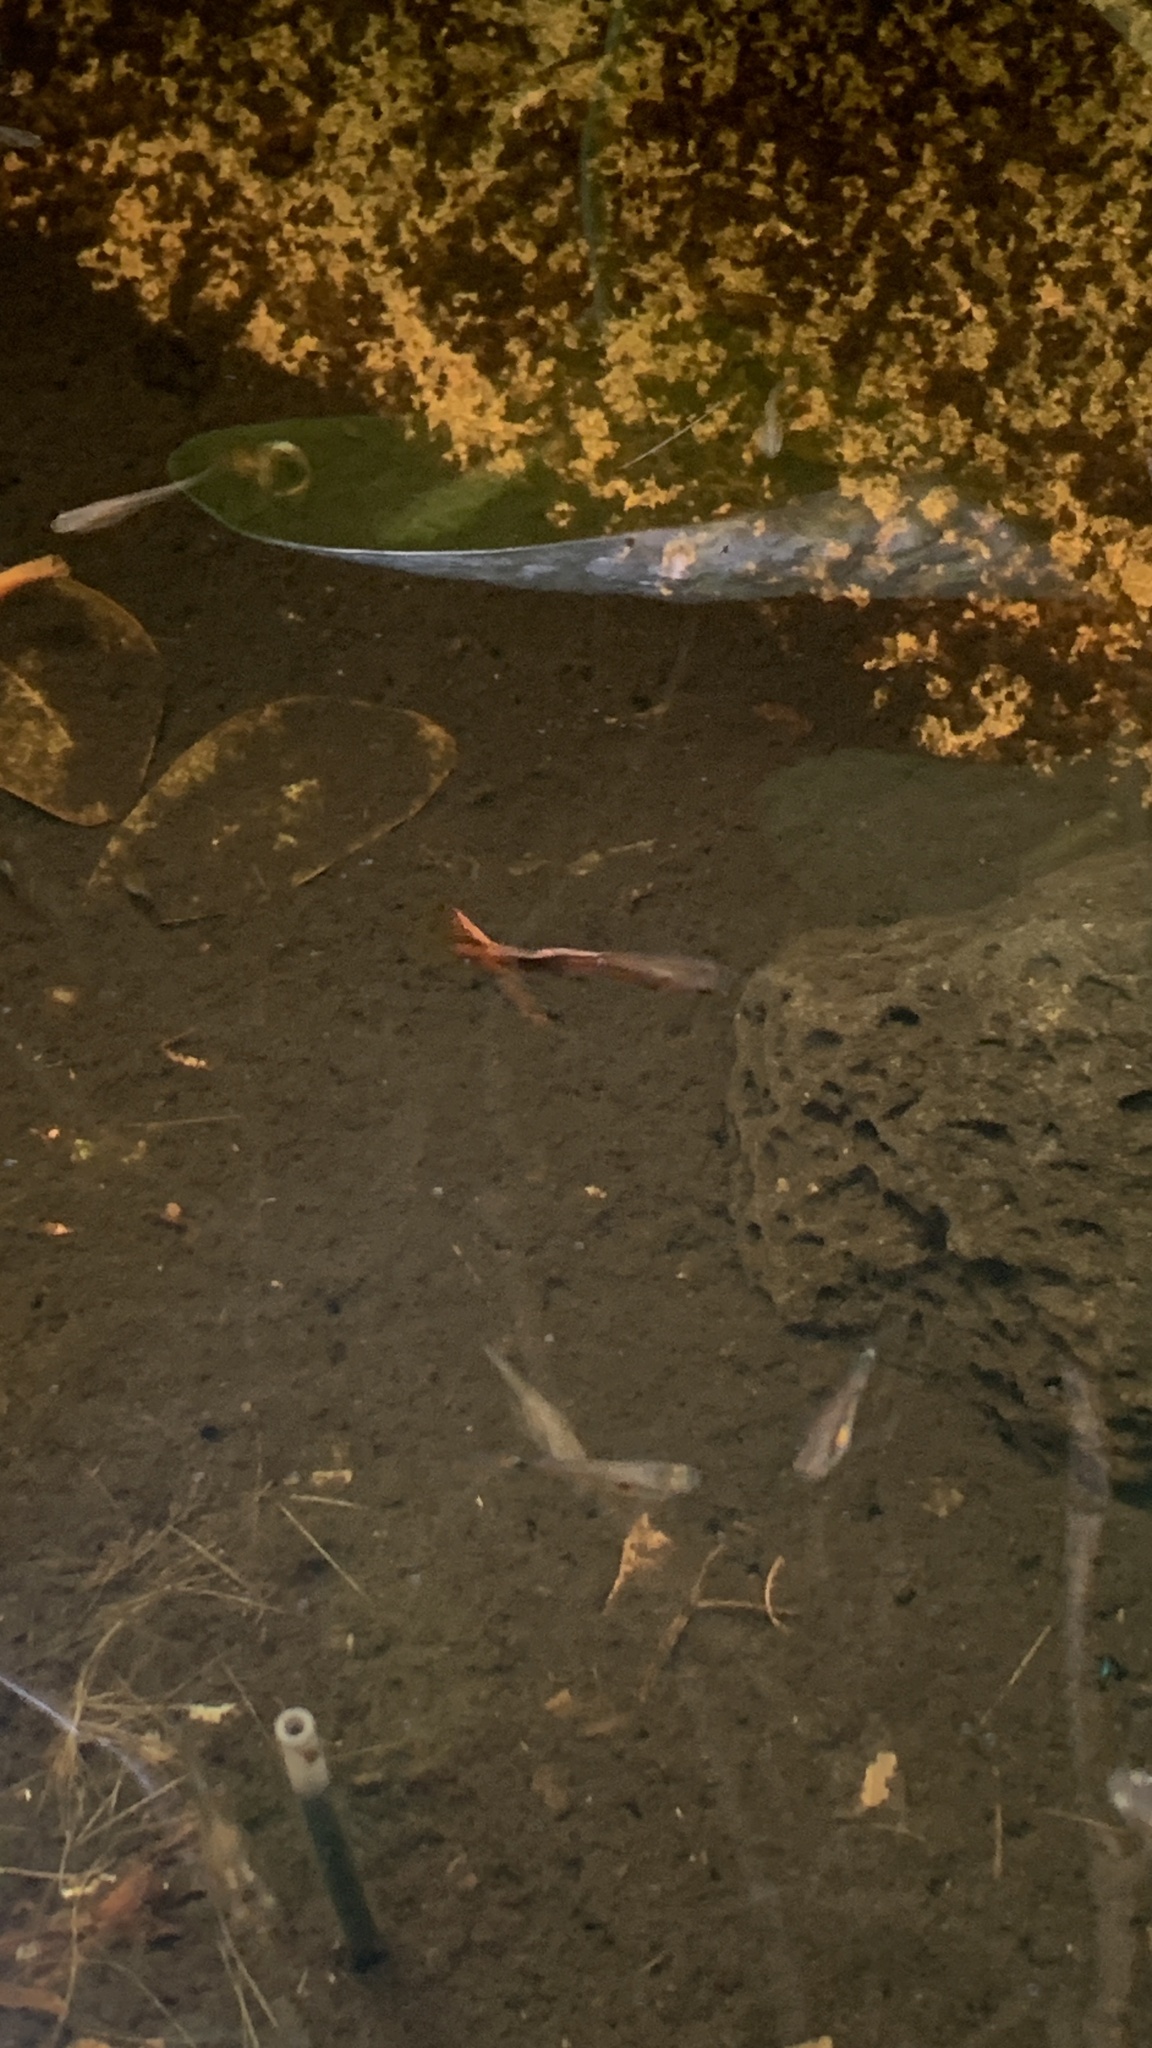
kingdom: Animalia
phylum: Chordata
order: Cyprinodontiformes
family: Poeciliidae
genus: Poecilia
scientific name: Poecilia reticulata
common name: Guppy
